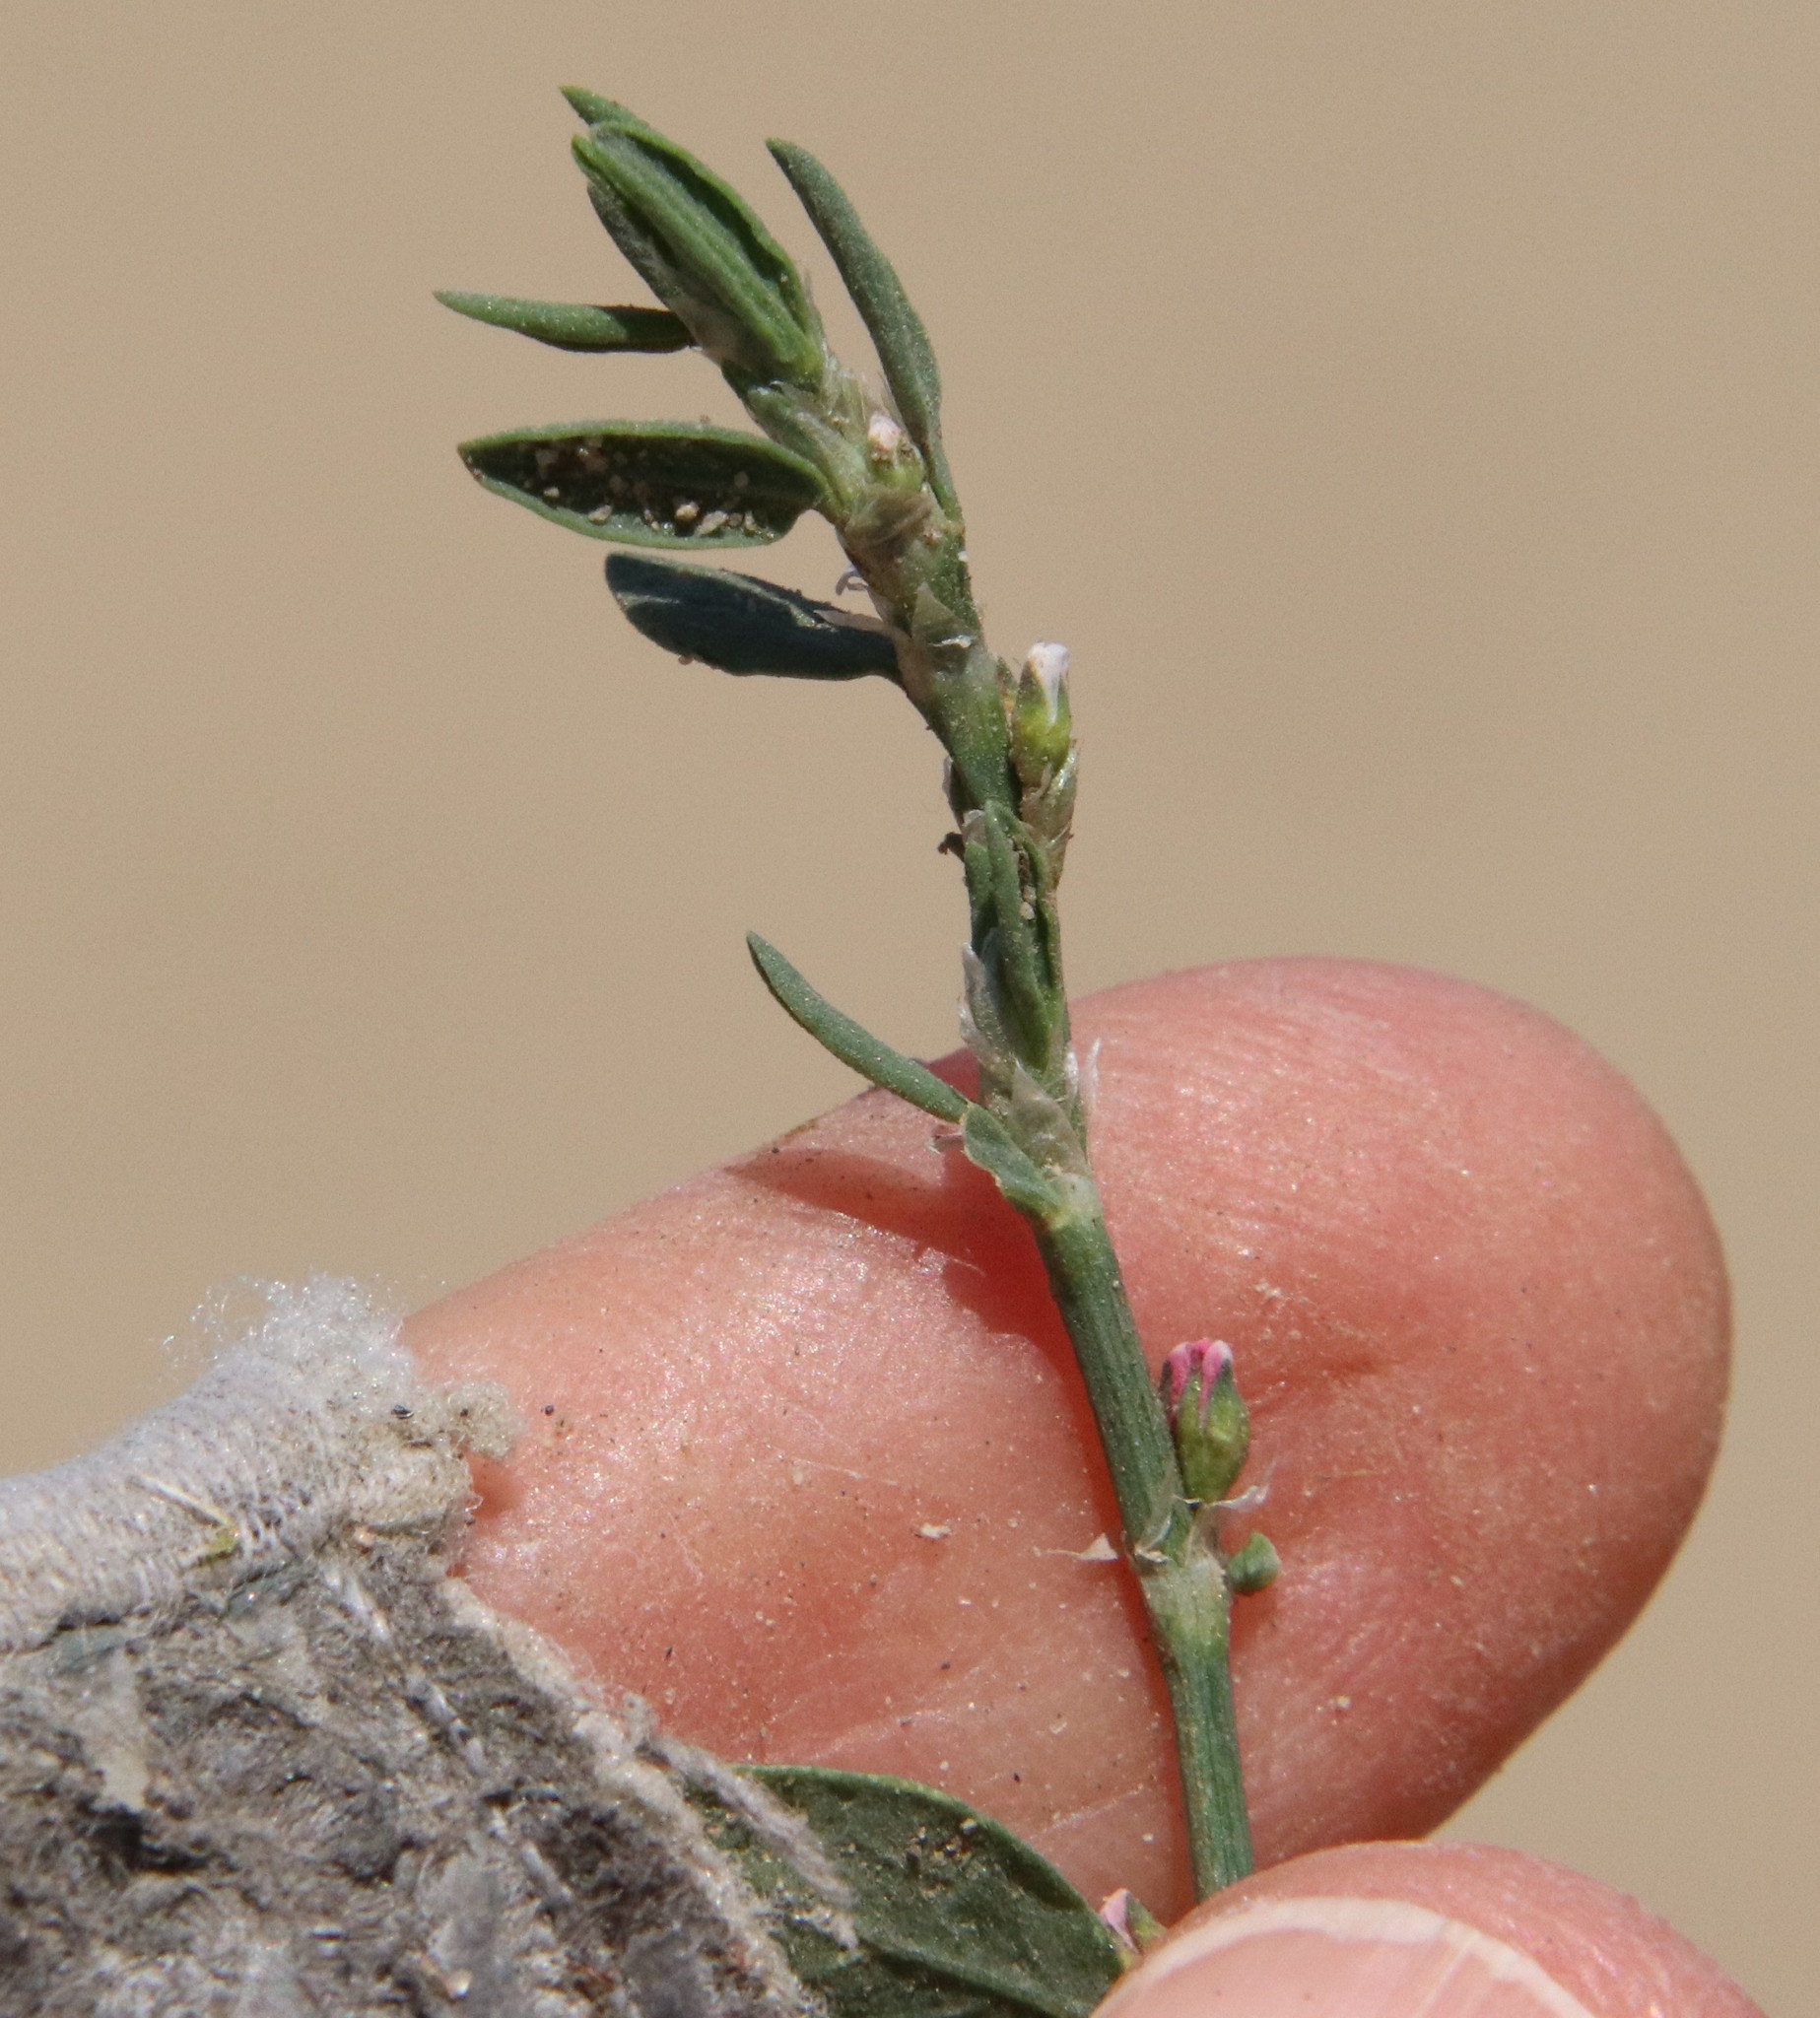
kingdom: Plantae
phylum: Tracheophyta
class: Magnoliopsida
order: Caryophyllales
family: Polygonaceae
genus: Polygonum
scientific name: Polygonum aviculare
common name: Prostrate knotweed
